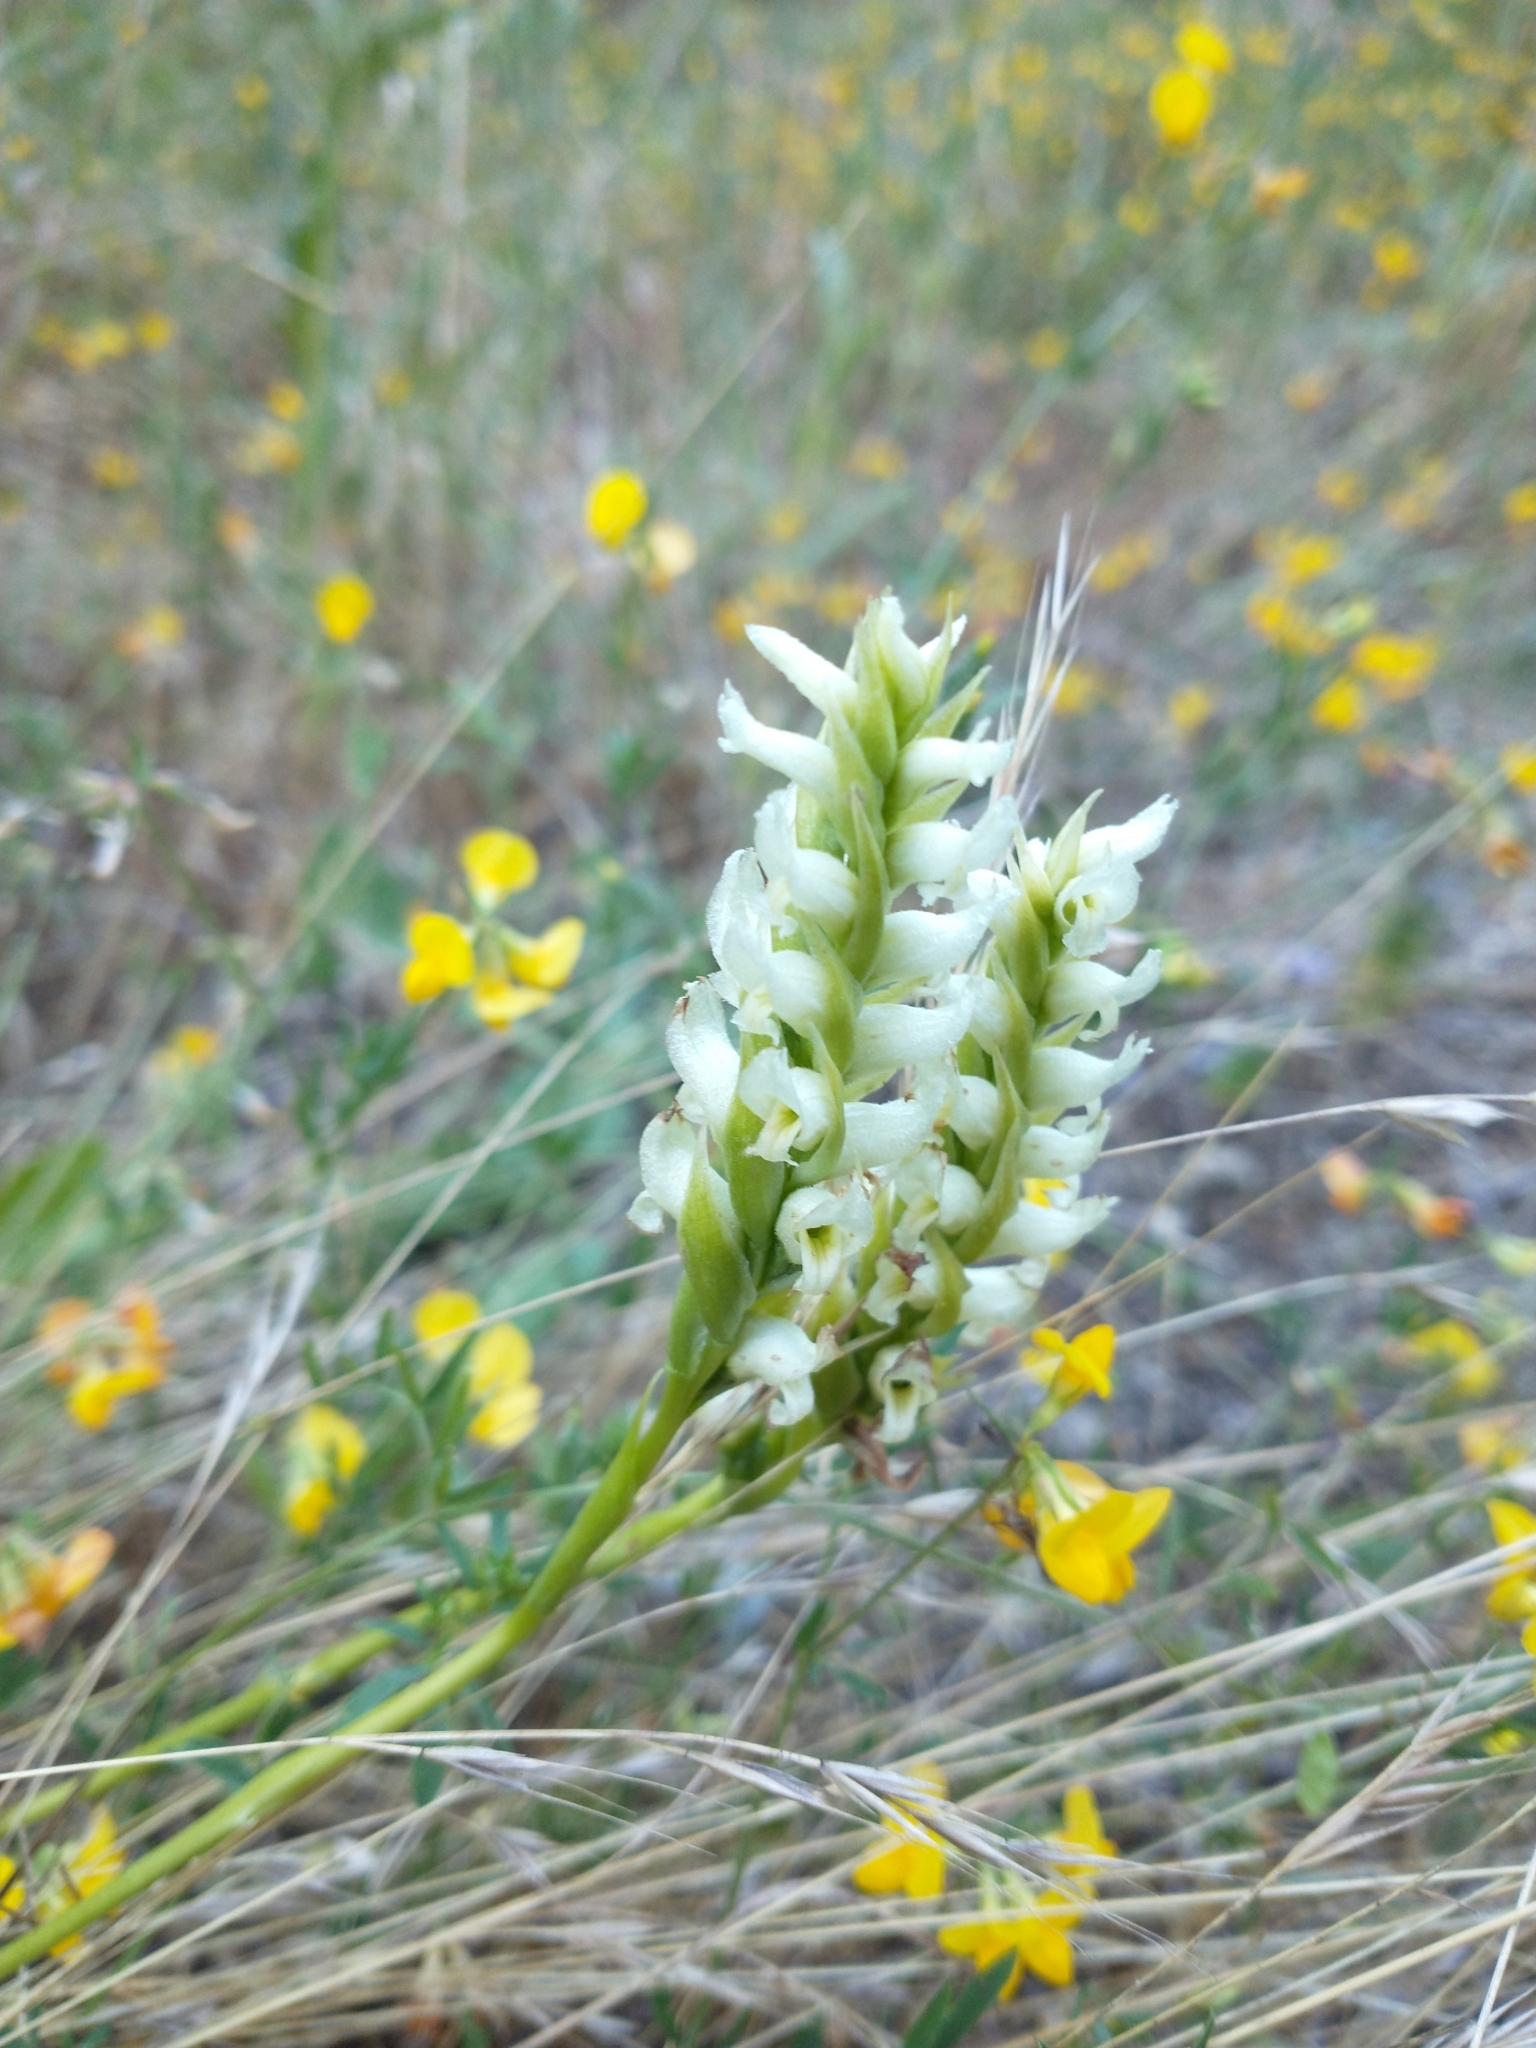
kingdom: Plantae
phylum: Tracheophyta
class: Liliopsida
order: Asparagales
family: Orchidaceae
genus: Spiranthes
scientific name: Spiranthes romanzoffiana
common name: Irish lady's-tresses
